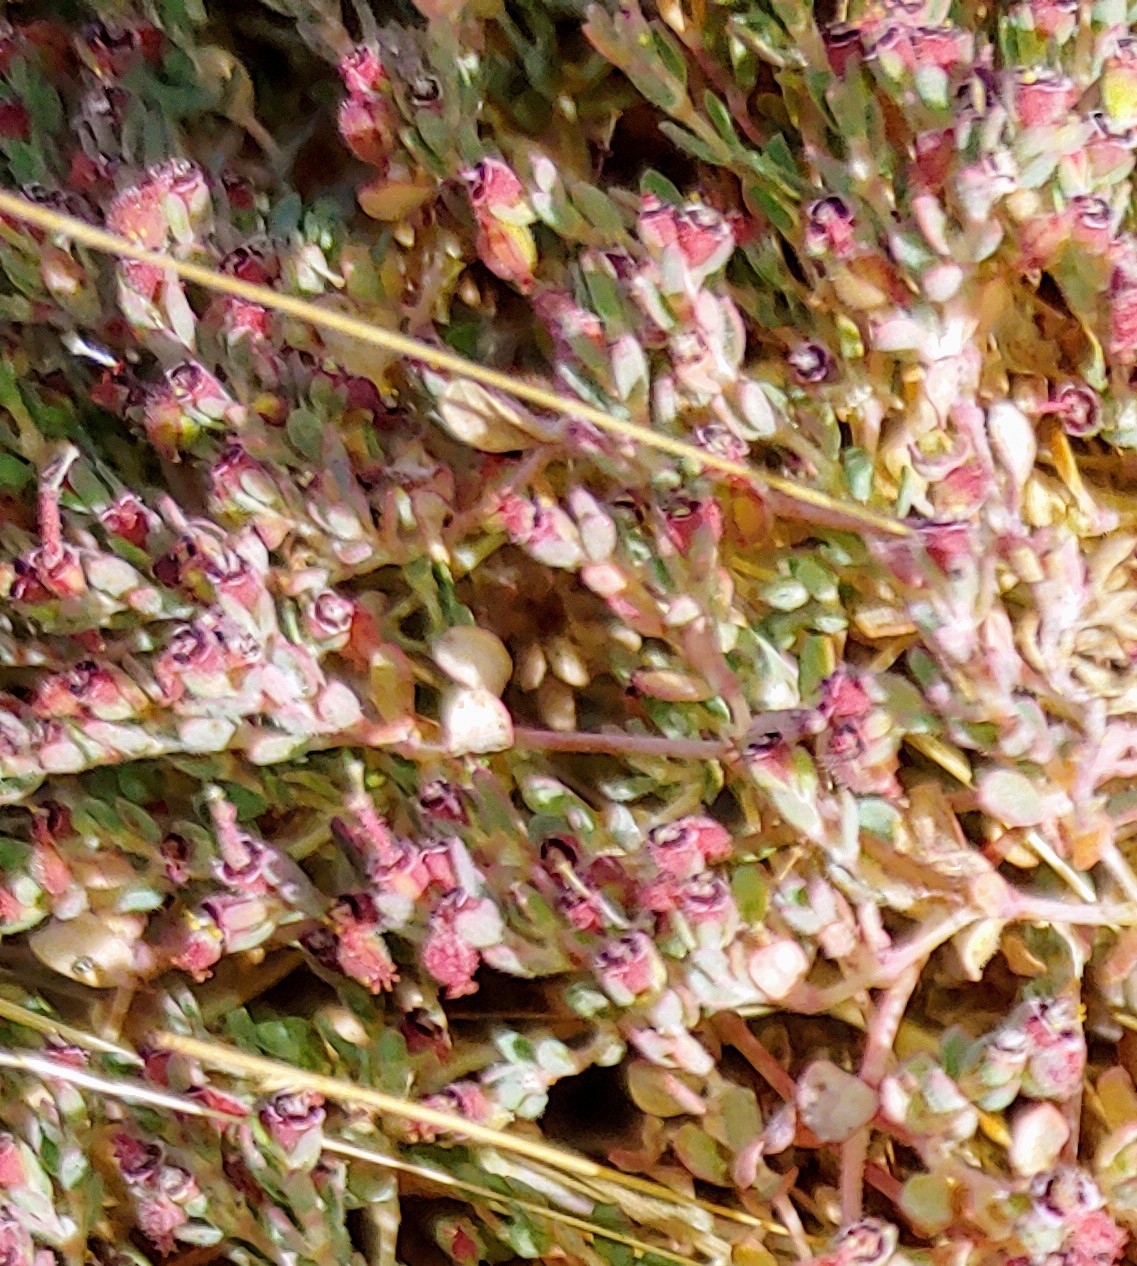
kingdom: Plantae
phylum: Tracheophyta
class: Magnoliopsida
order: Malpighiales
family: Euphorbiaceae
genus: Euphorbia
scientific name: Euphorbia polycarpa
